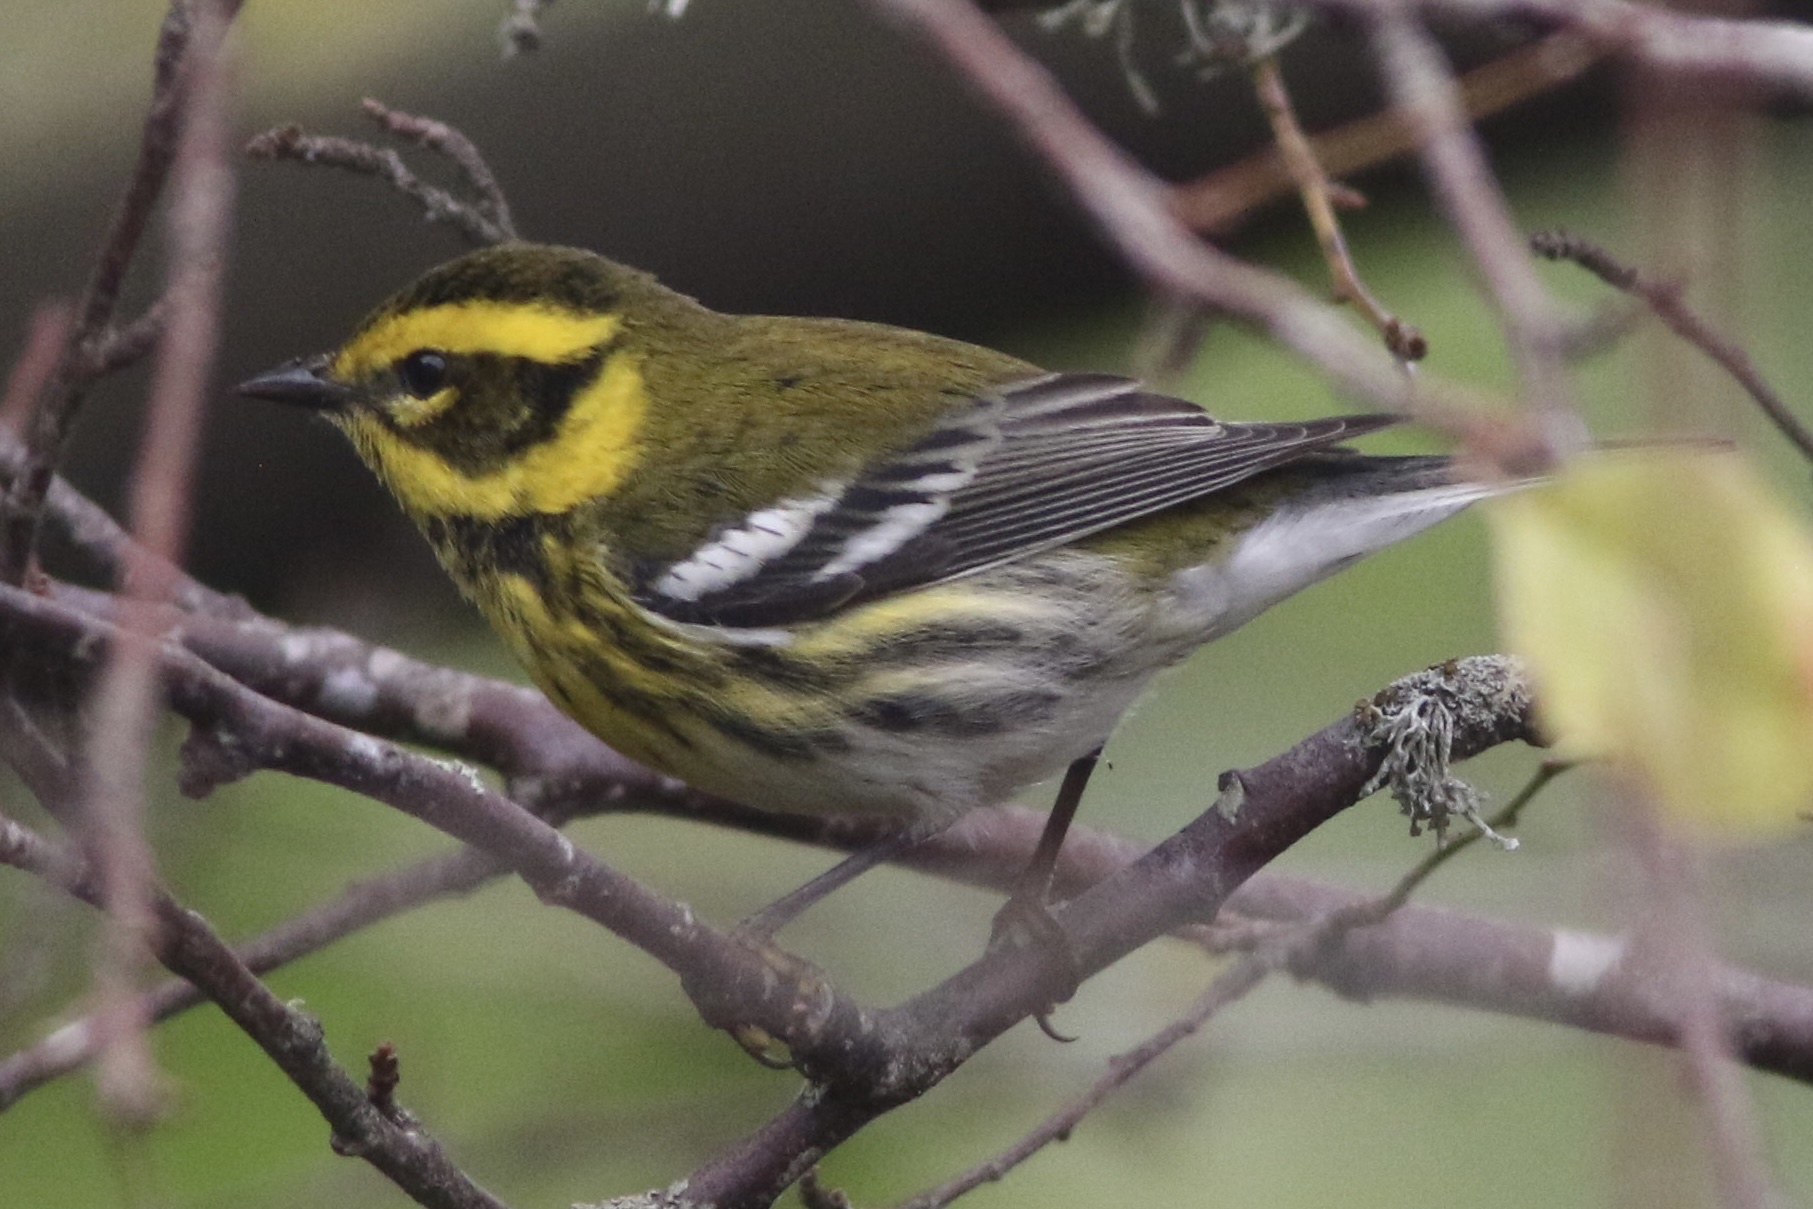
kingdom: Animalia
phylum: Chordata
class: Aves
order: Passeriformes
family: Parulidae
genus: Setophaga
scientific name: Setophaga townsendi
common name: Townsend's warbler
